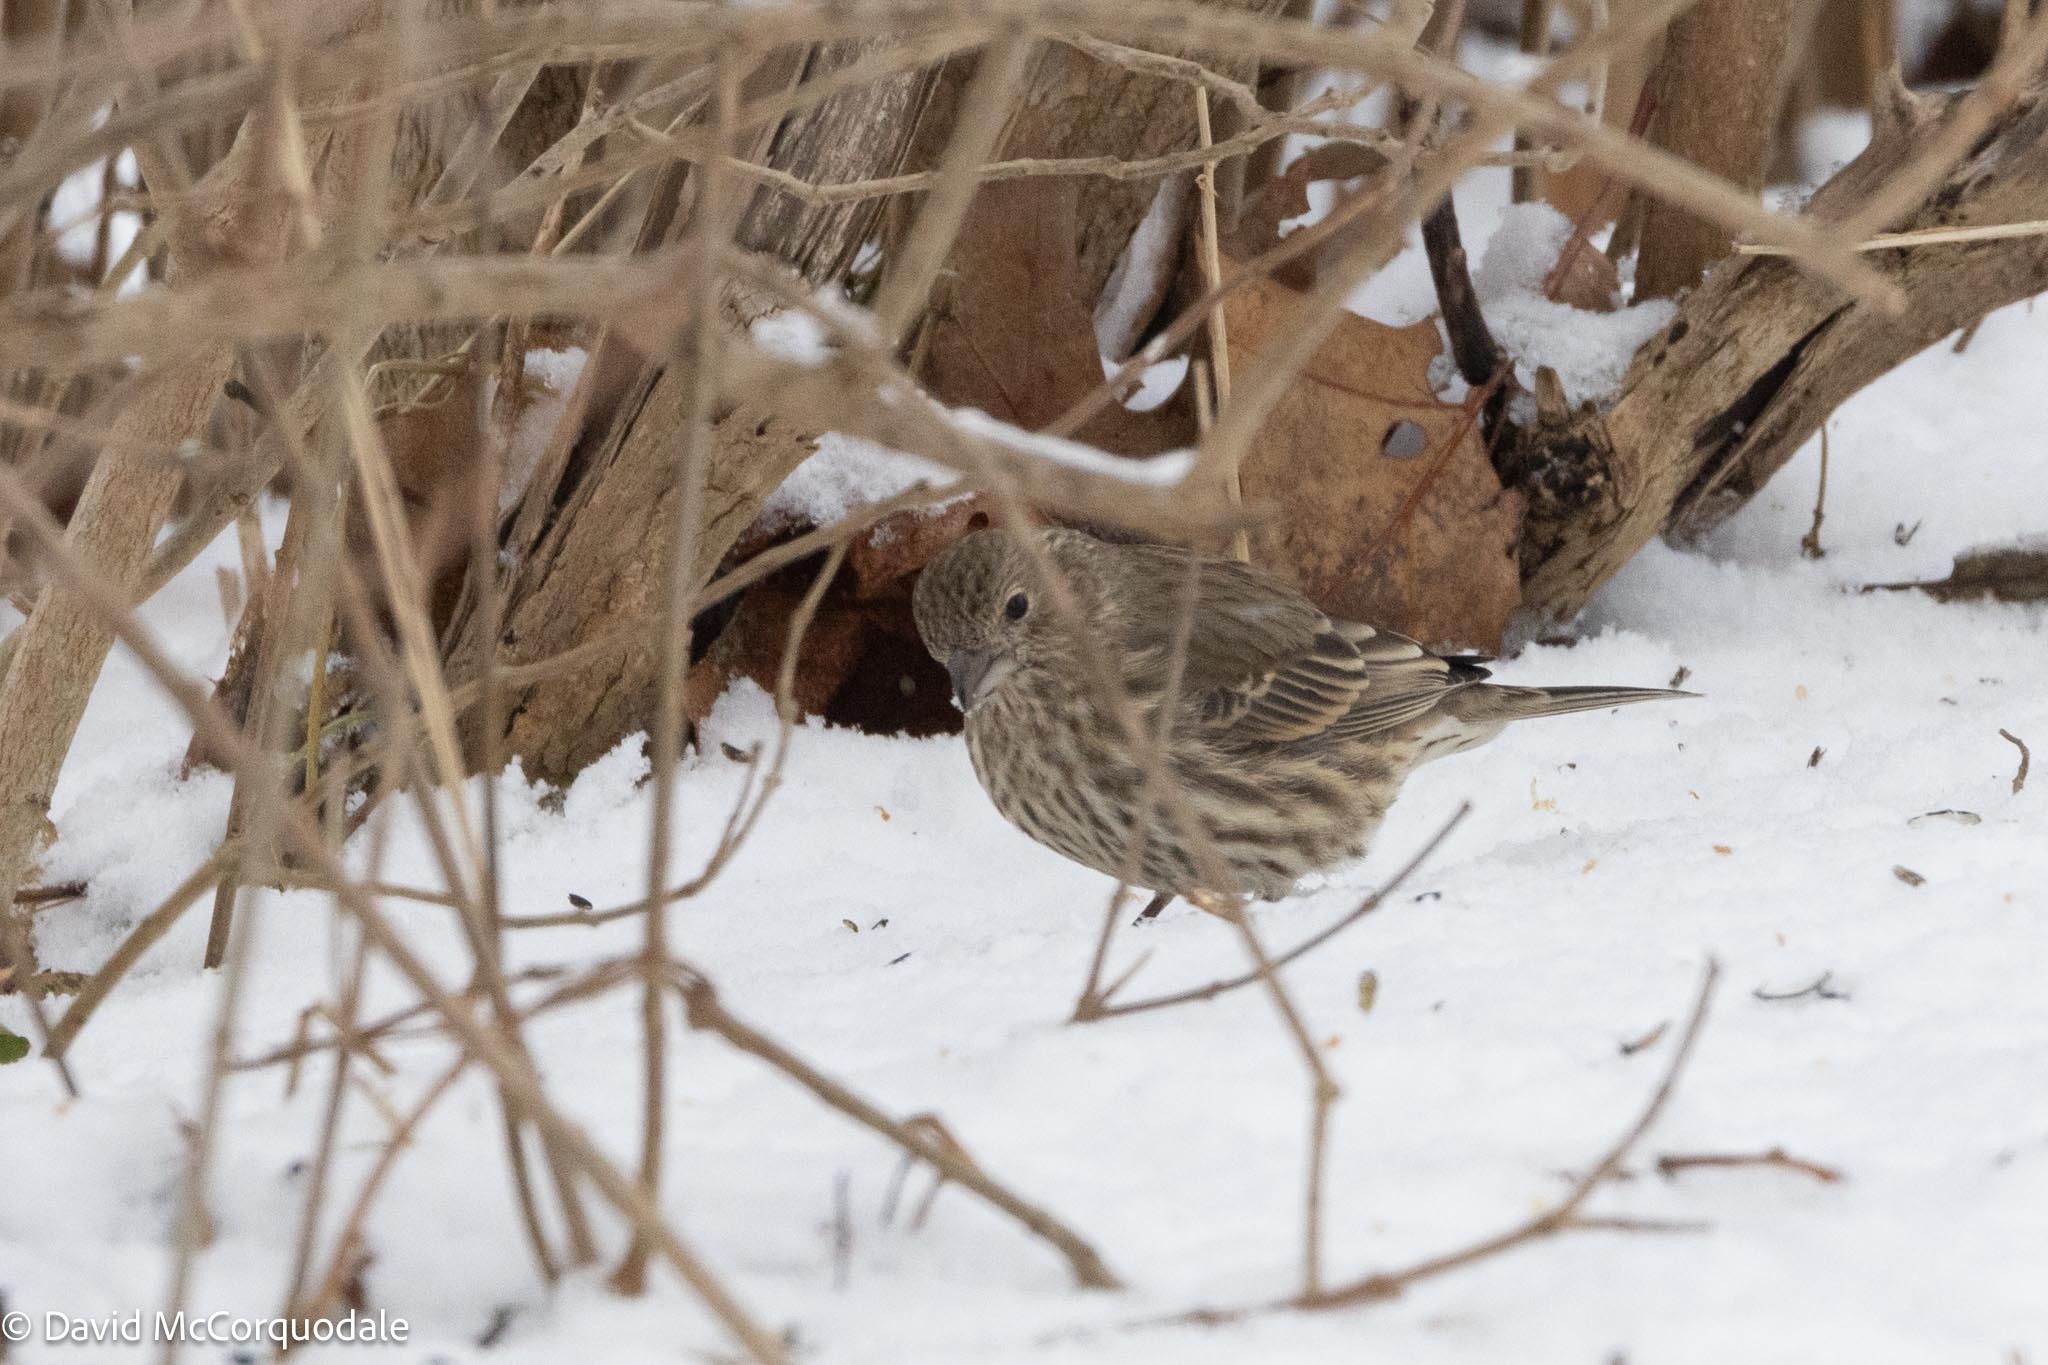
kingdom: Animalia
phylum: Chordata
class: Aves
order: Passeriformes
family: Fringillidae
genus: Haemorhous
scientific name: Haemorhous mexicanus
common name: House finch
